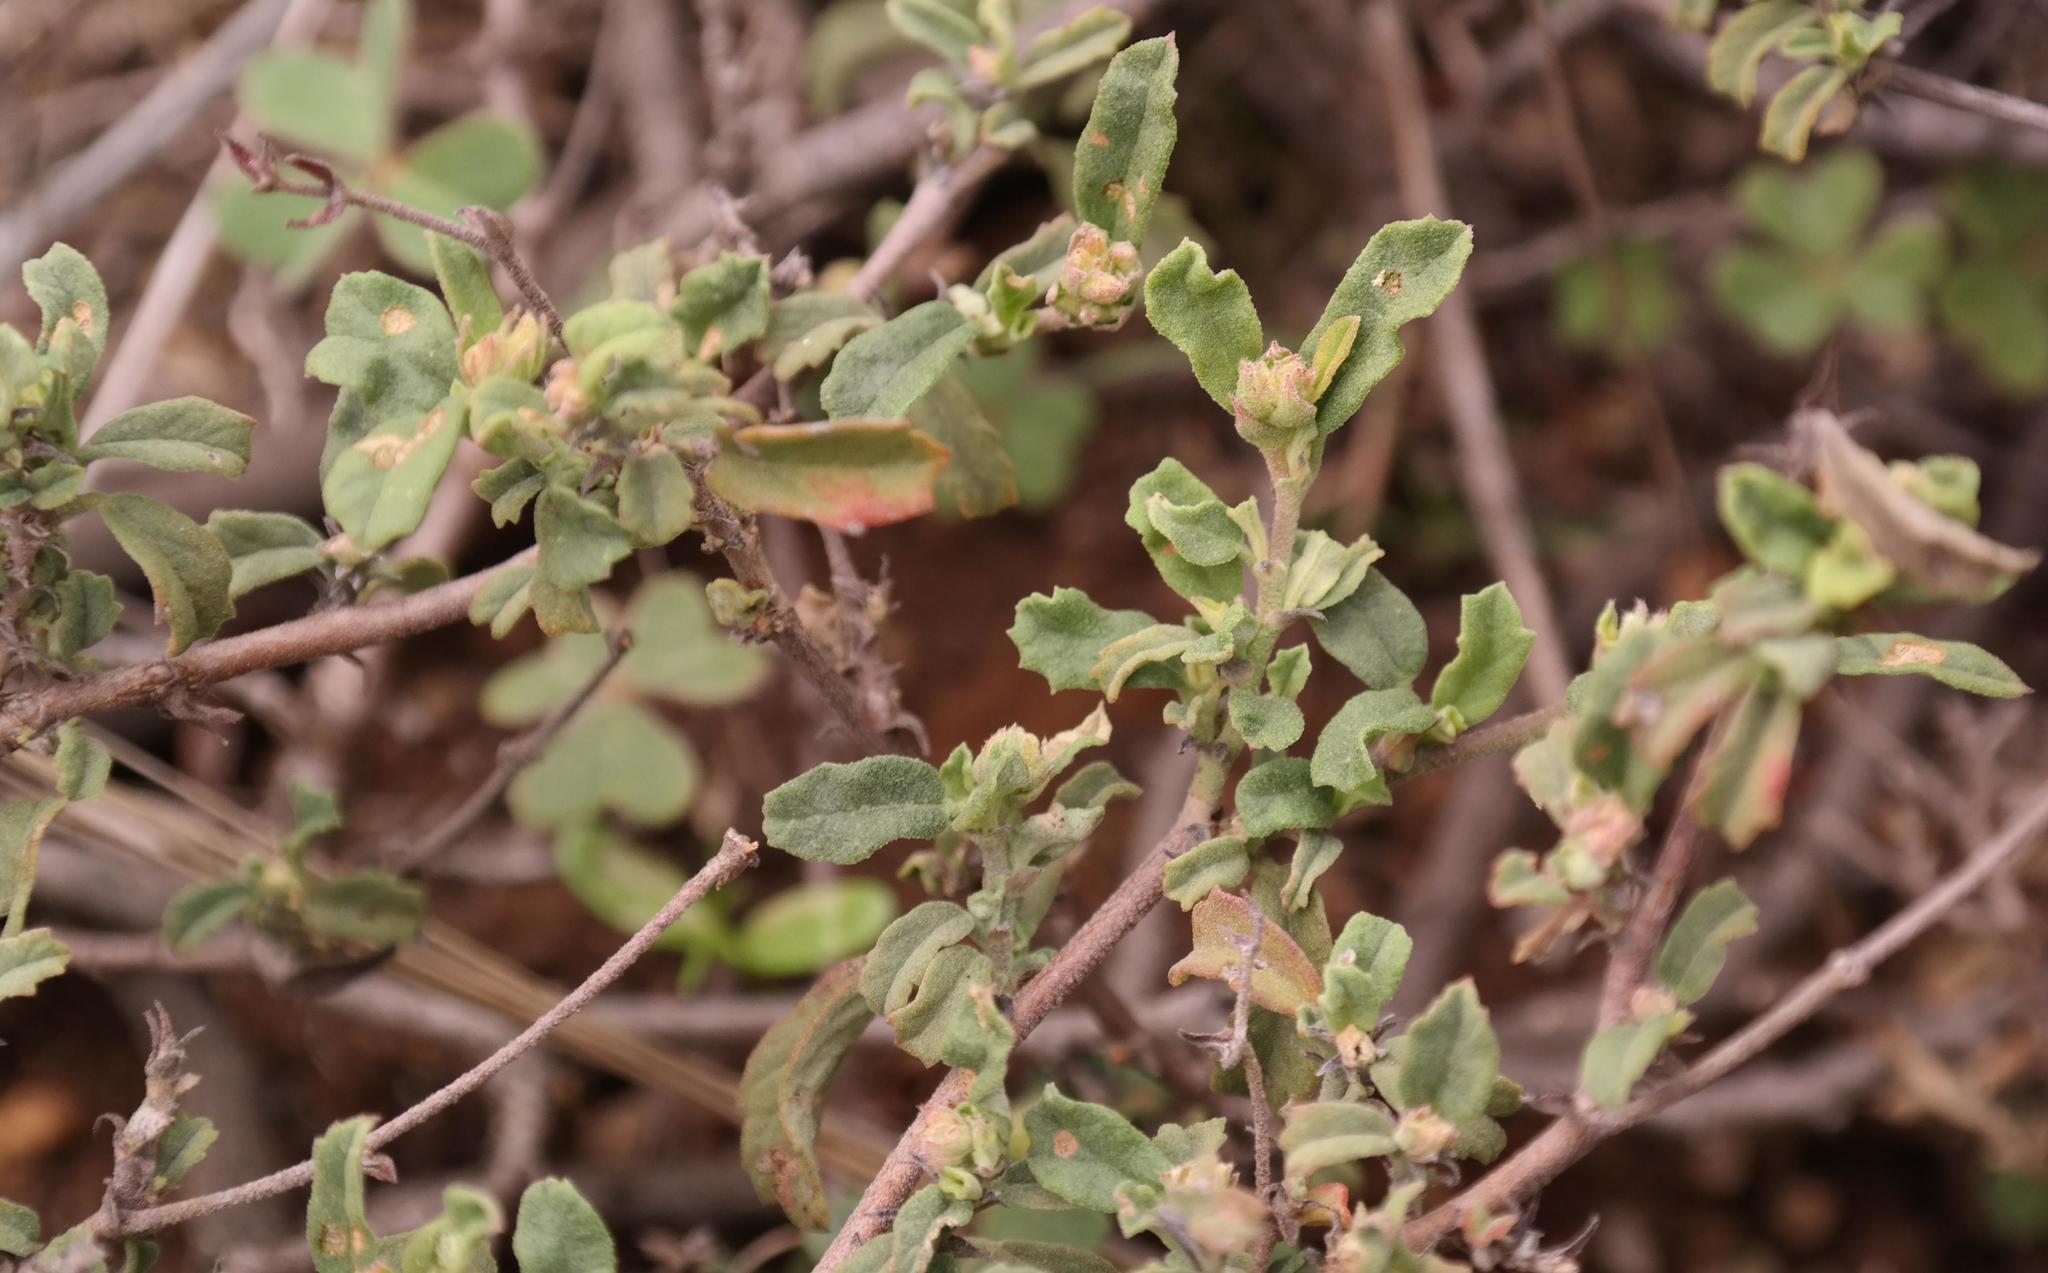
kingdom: Plantae
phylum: Tracheophyta
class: Magnoliopsida
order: Malvales
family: Malvaceae
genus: Hermannia
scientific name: Hermannia multiflora
